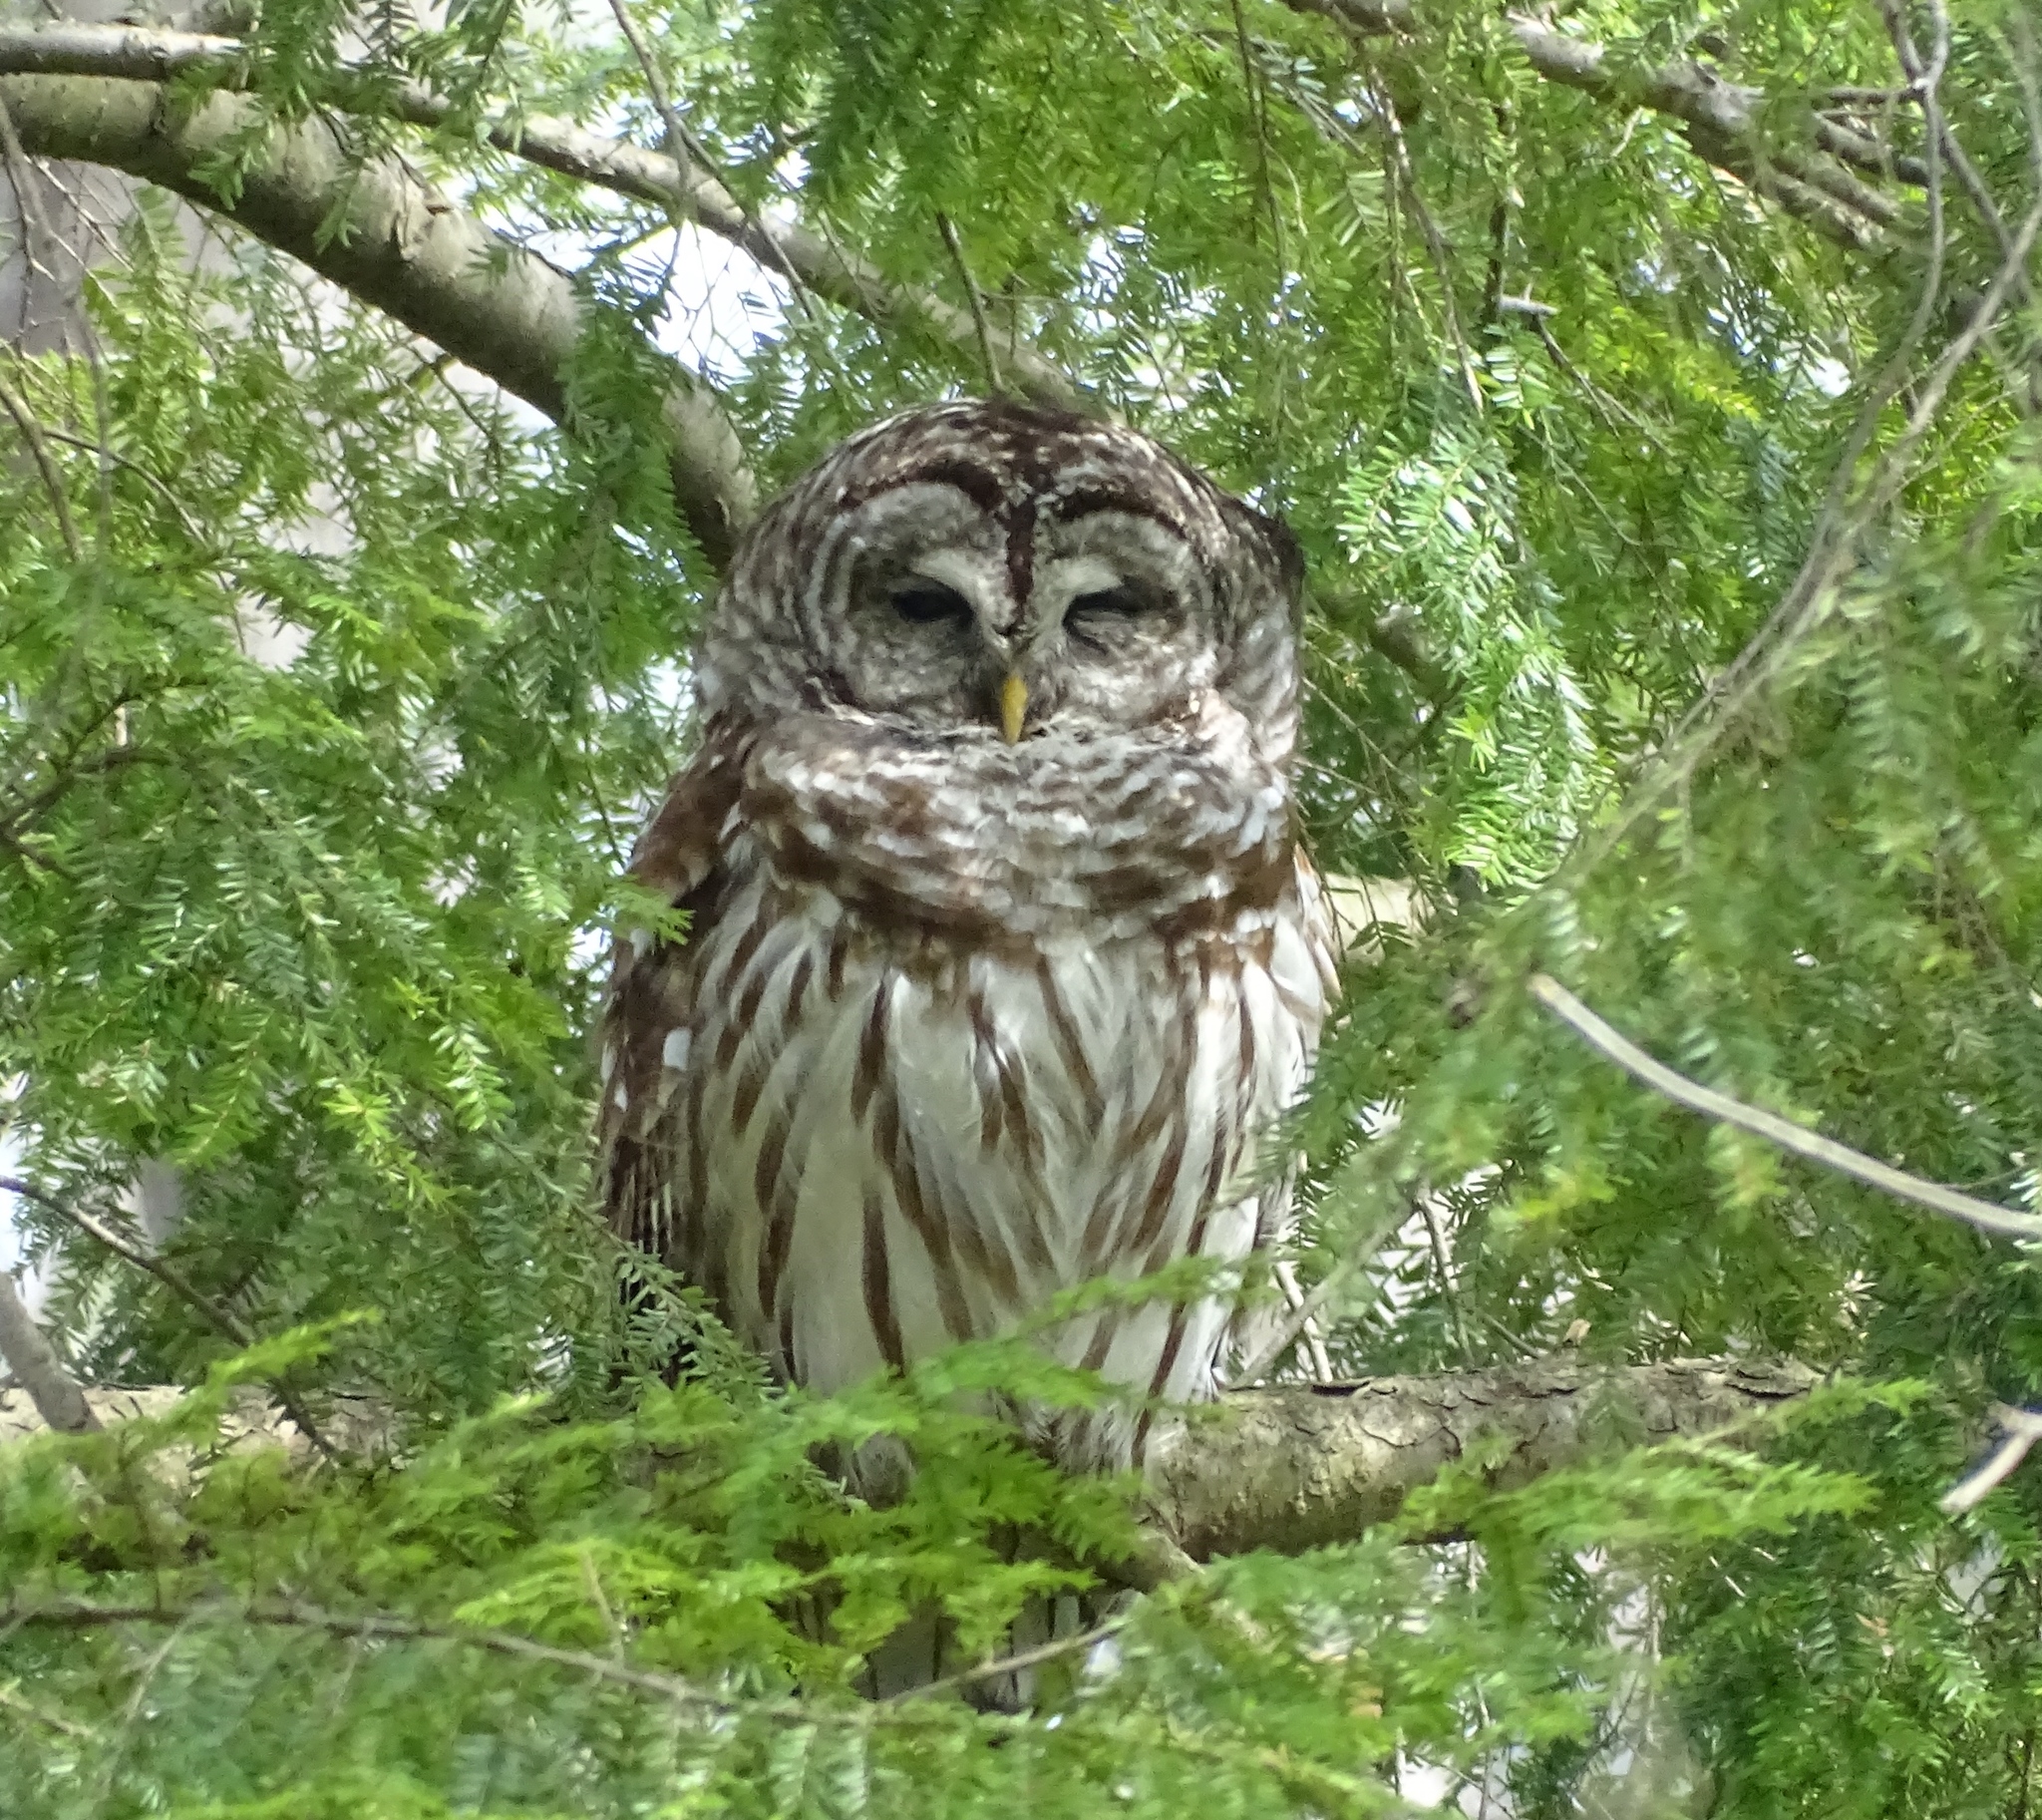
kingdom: Animalia
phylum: Chordata
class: Aves
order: Strigiformes
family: Strigidae
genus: Strix
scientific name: Strix varia
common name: Barred owl
